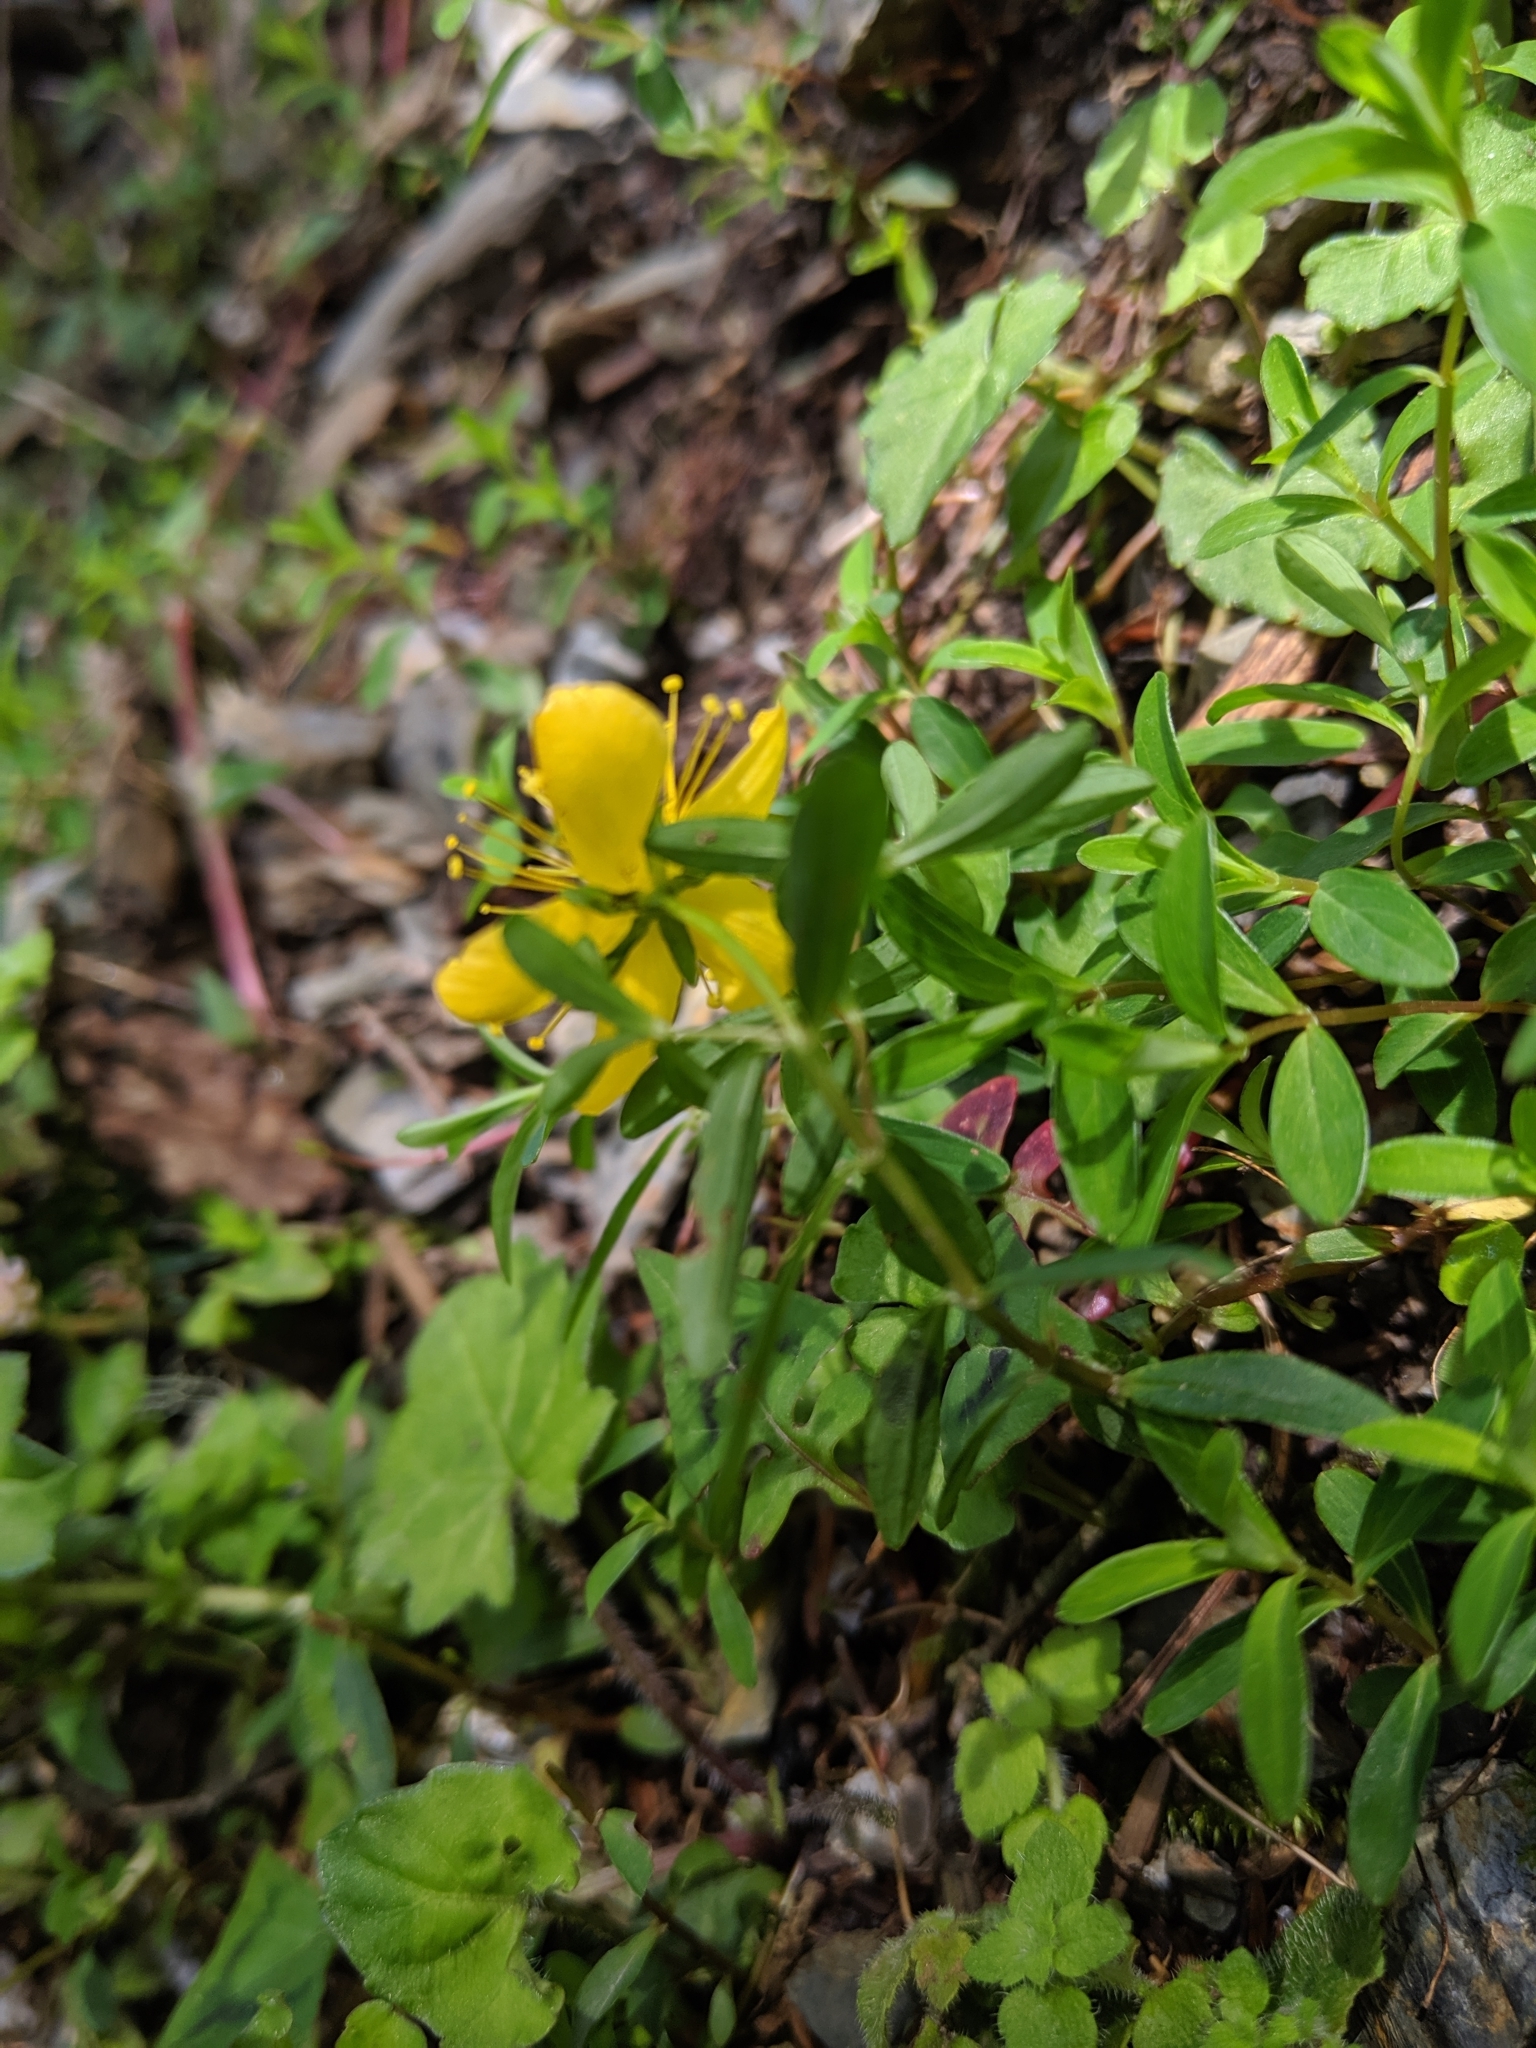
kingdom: Plantae
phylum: Tracheophyta
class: Magnoliopsida
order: Malpighiales
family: Hypericaceae
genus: Hypericum
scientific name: Hypericum nagasawae
